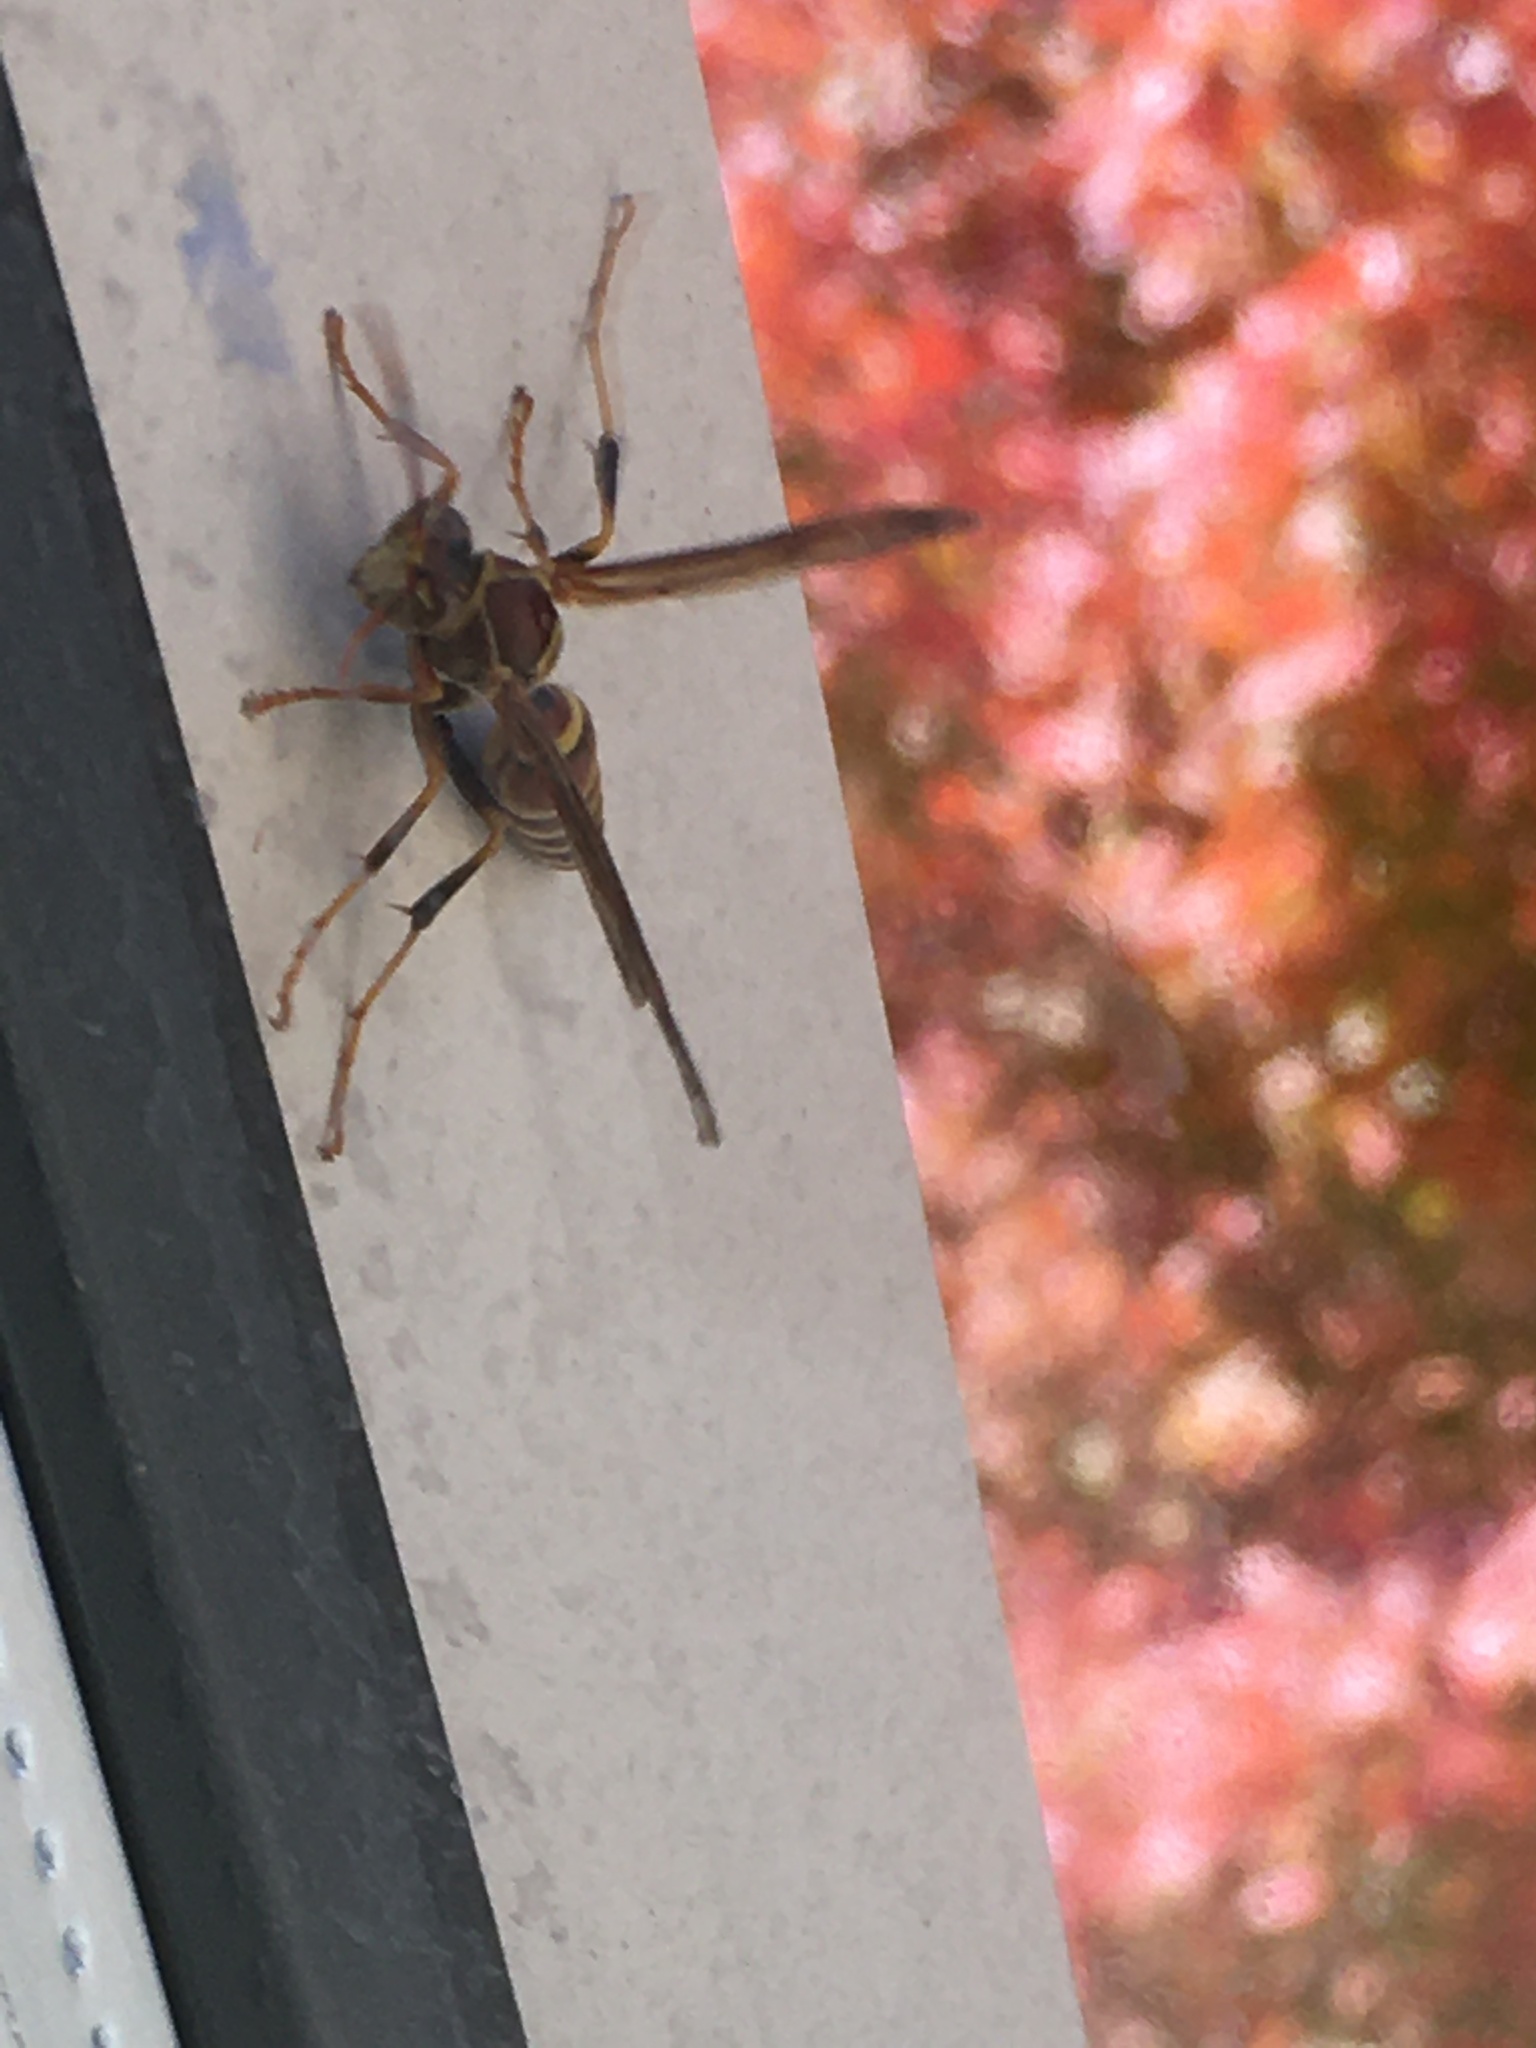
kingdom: Animalia
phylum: Arthropoda
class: Insecta
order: Hymenoptera
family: Eumenidae
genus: Polistes
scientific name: Polistes exclamans
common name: Paper wasp
